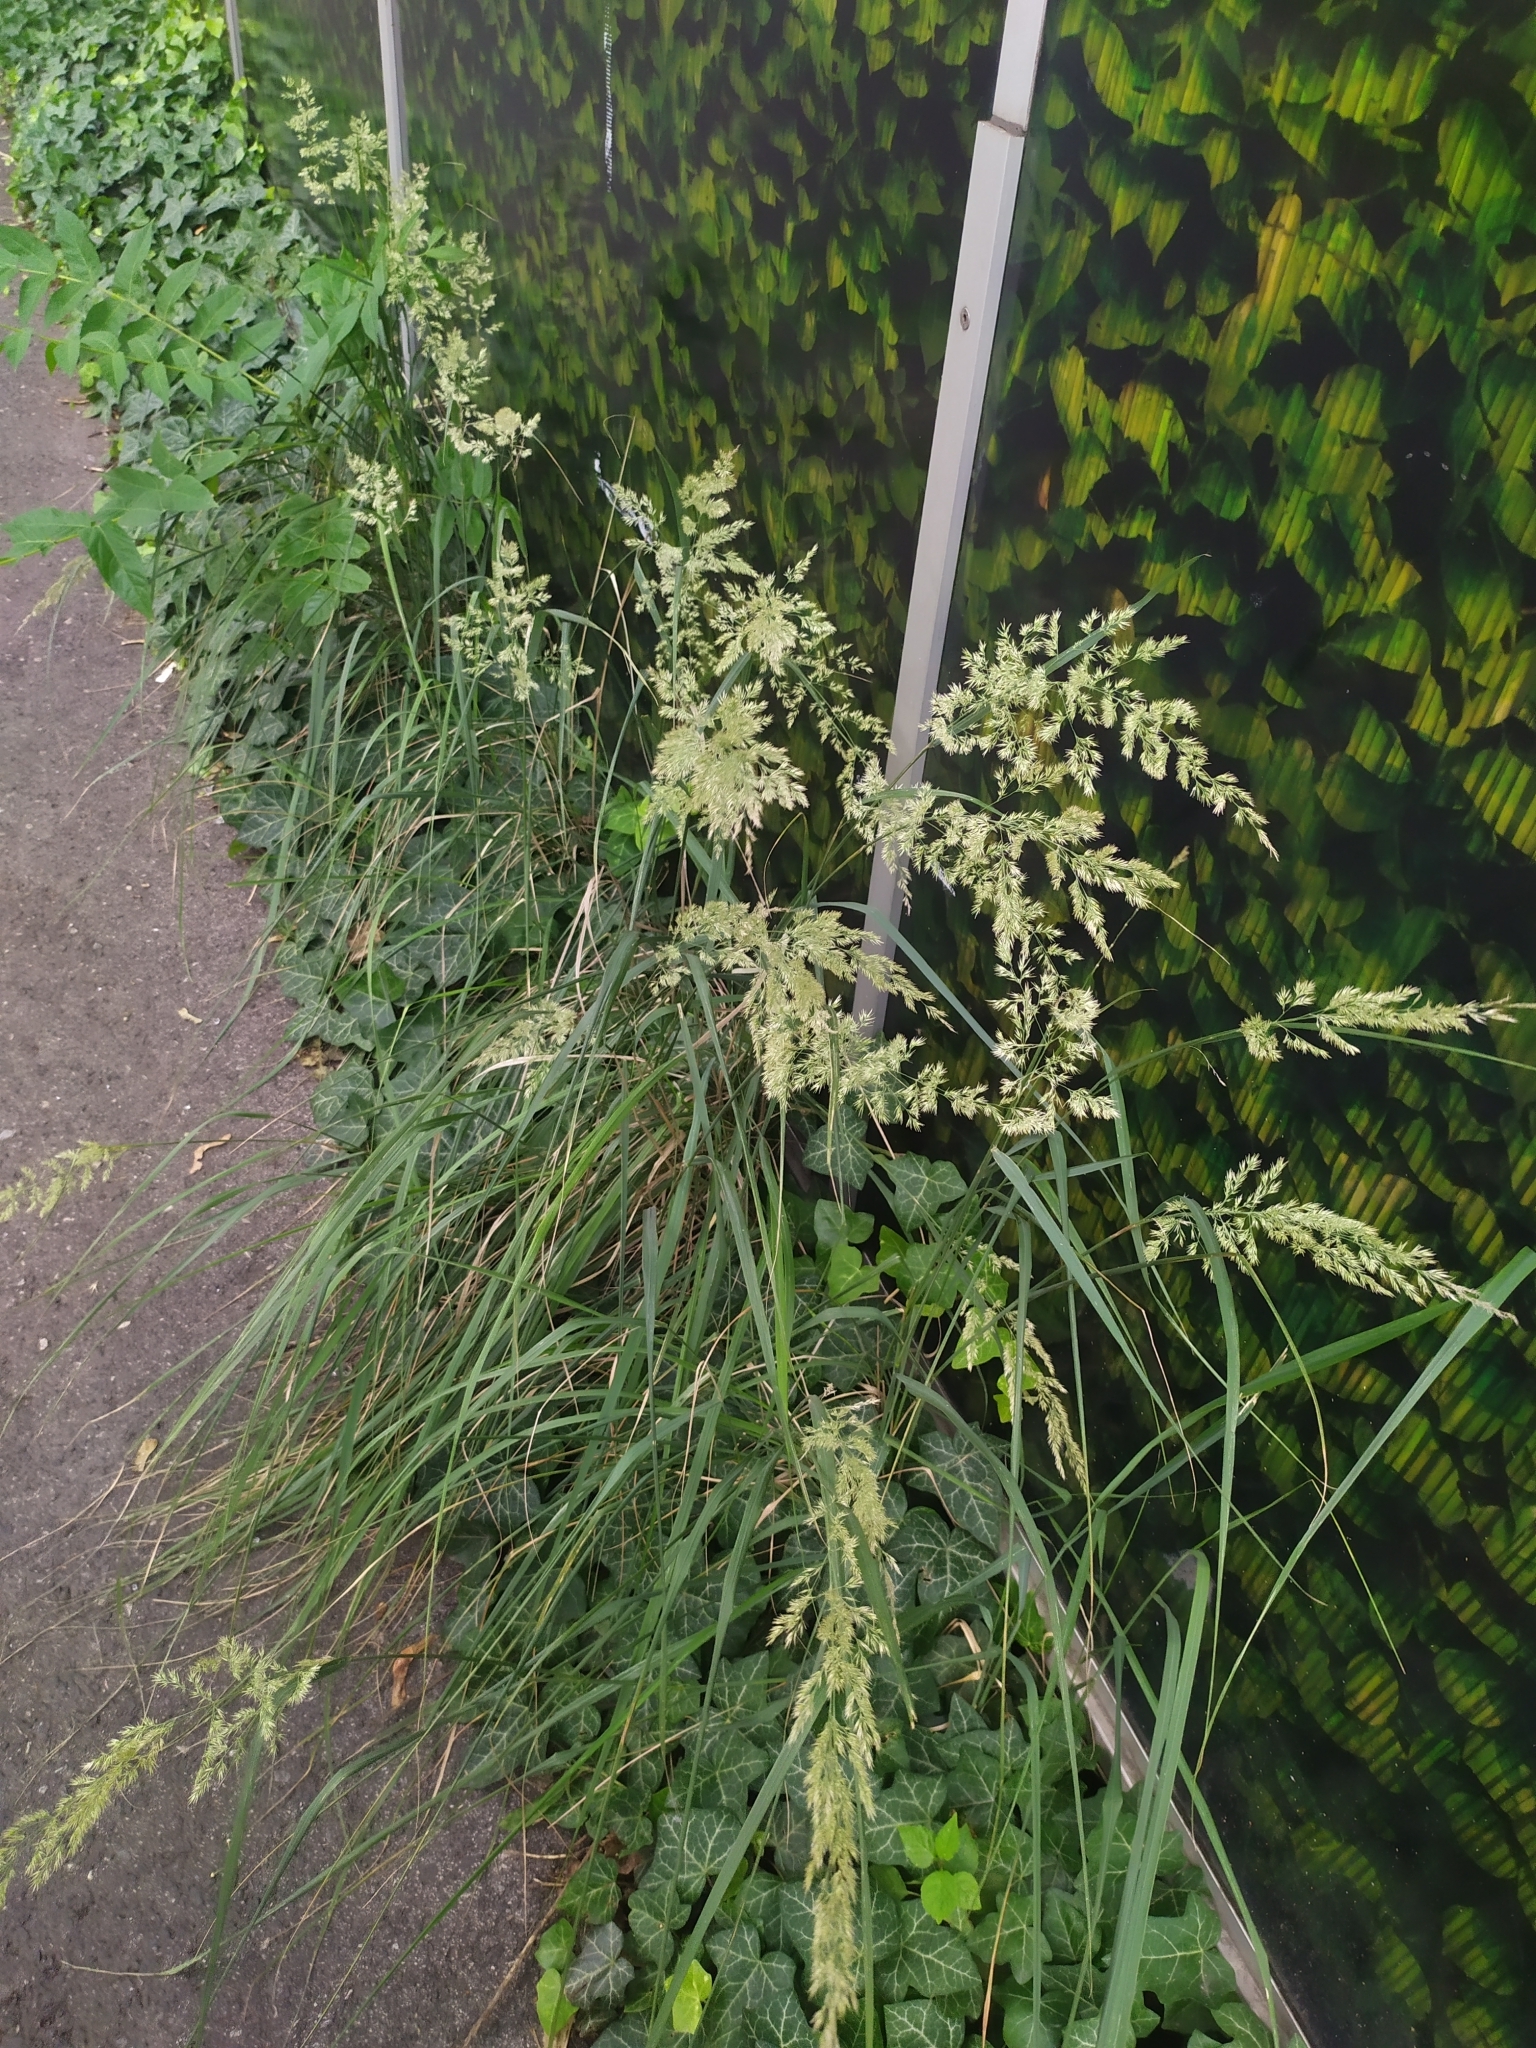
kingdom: Plantae
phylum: Tracheophyta
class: Liliopsida
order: Poales
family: Poaceae
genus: Calamagrostis
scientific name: Calamagrostis epigejos
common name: Wood small-reed
